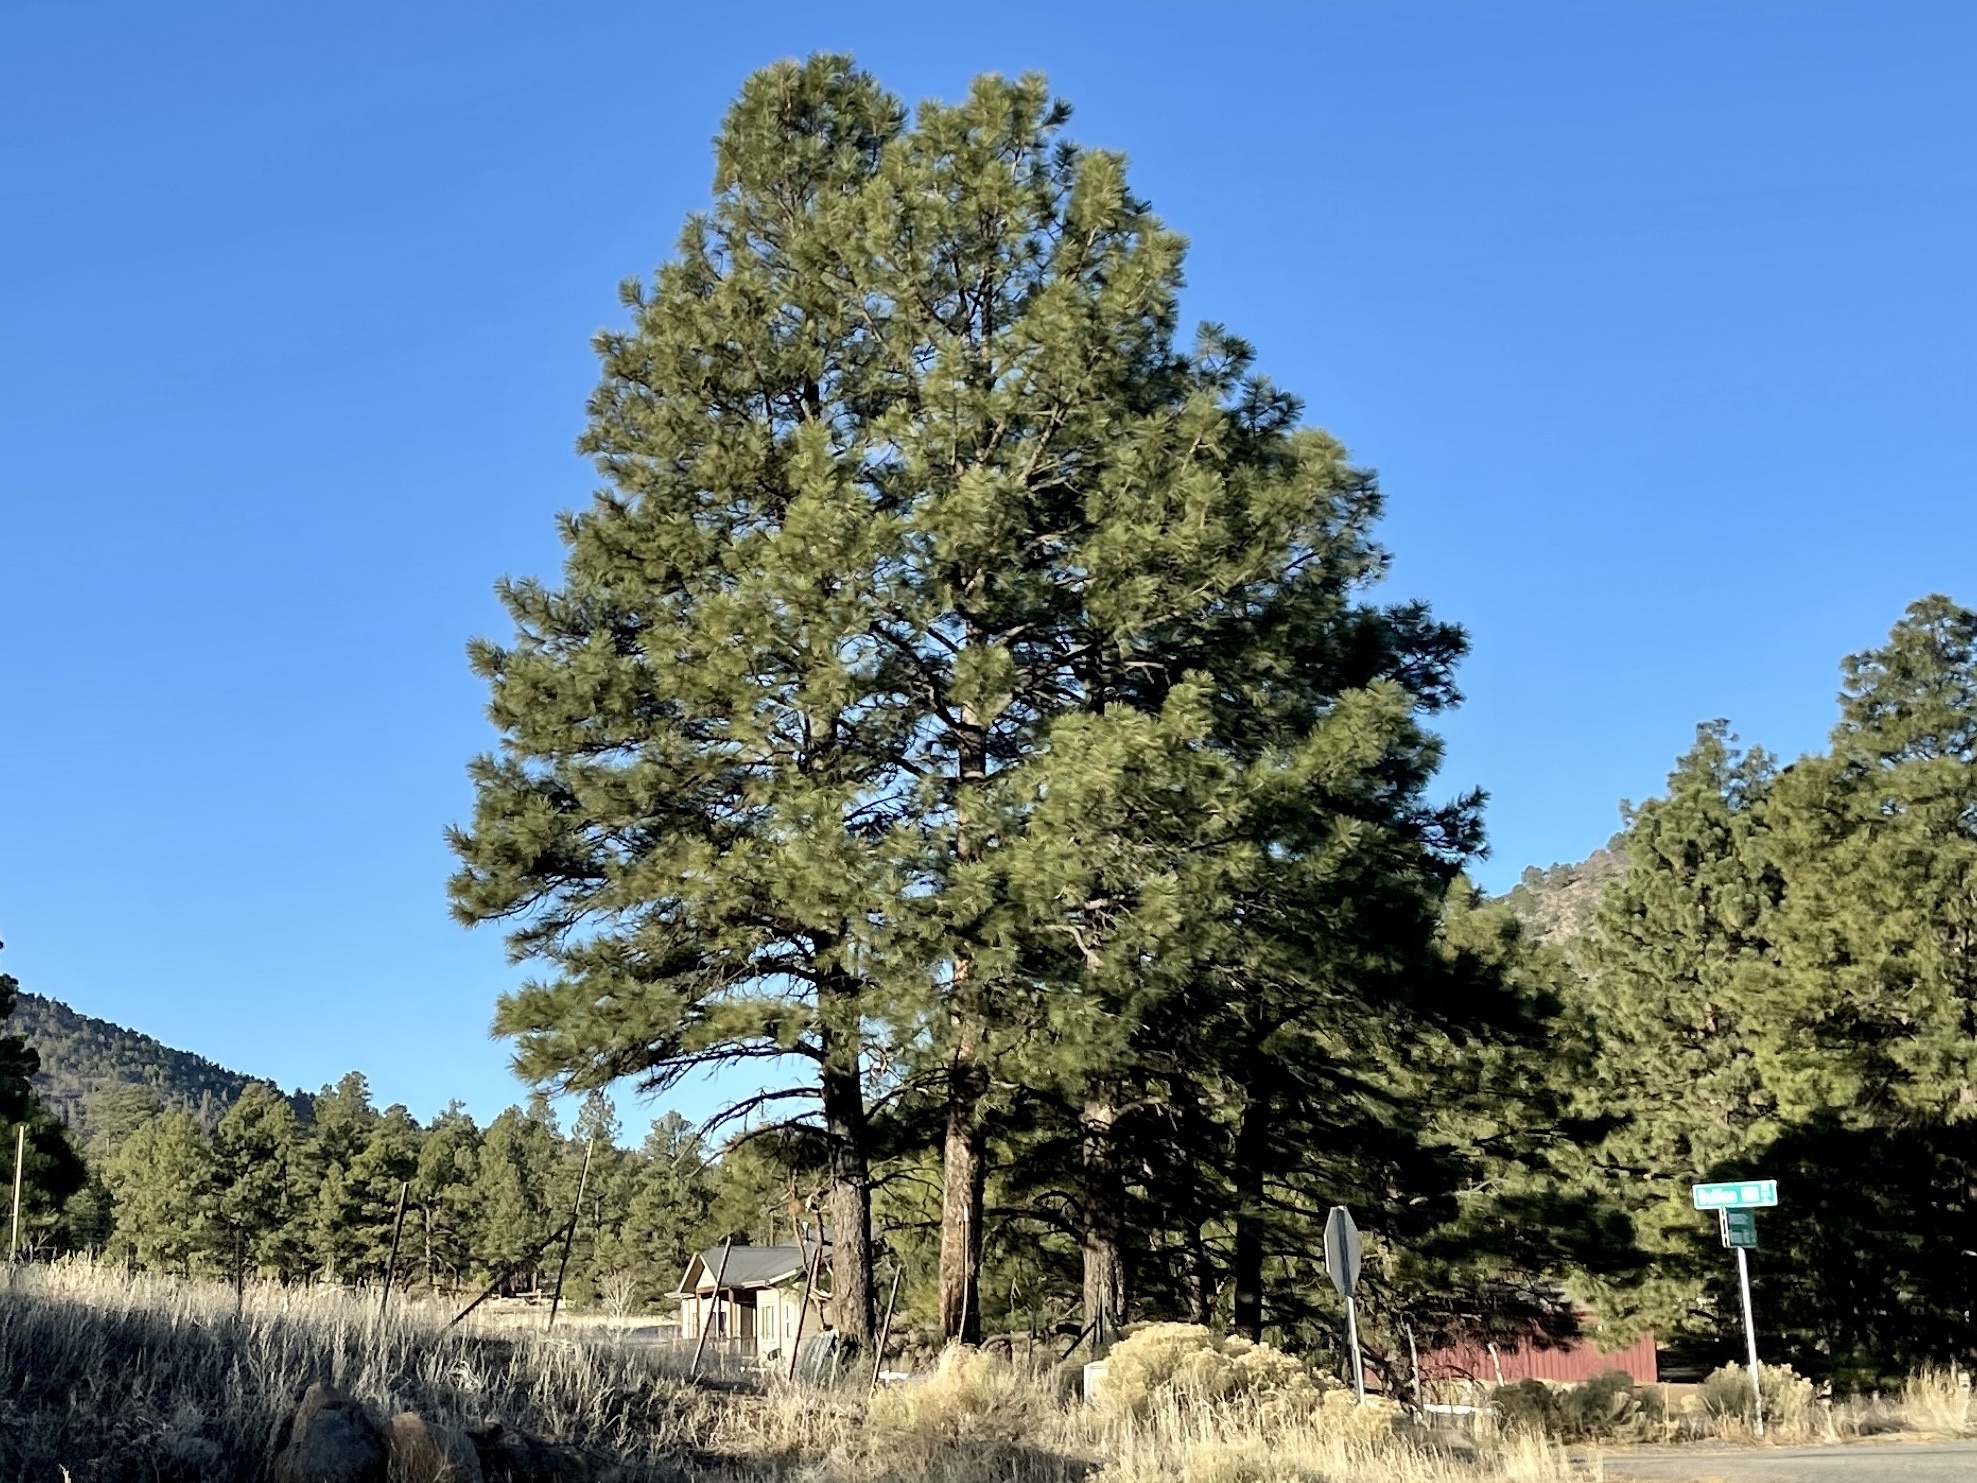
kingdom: Plantae
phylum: Tracheophyta
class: Pinopsida
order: Pinales
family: Pinaceae
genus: Pinus
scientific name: Pinus ponderosa
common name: Western yellow-pine
